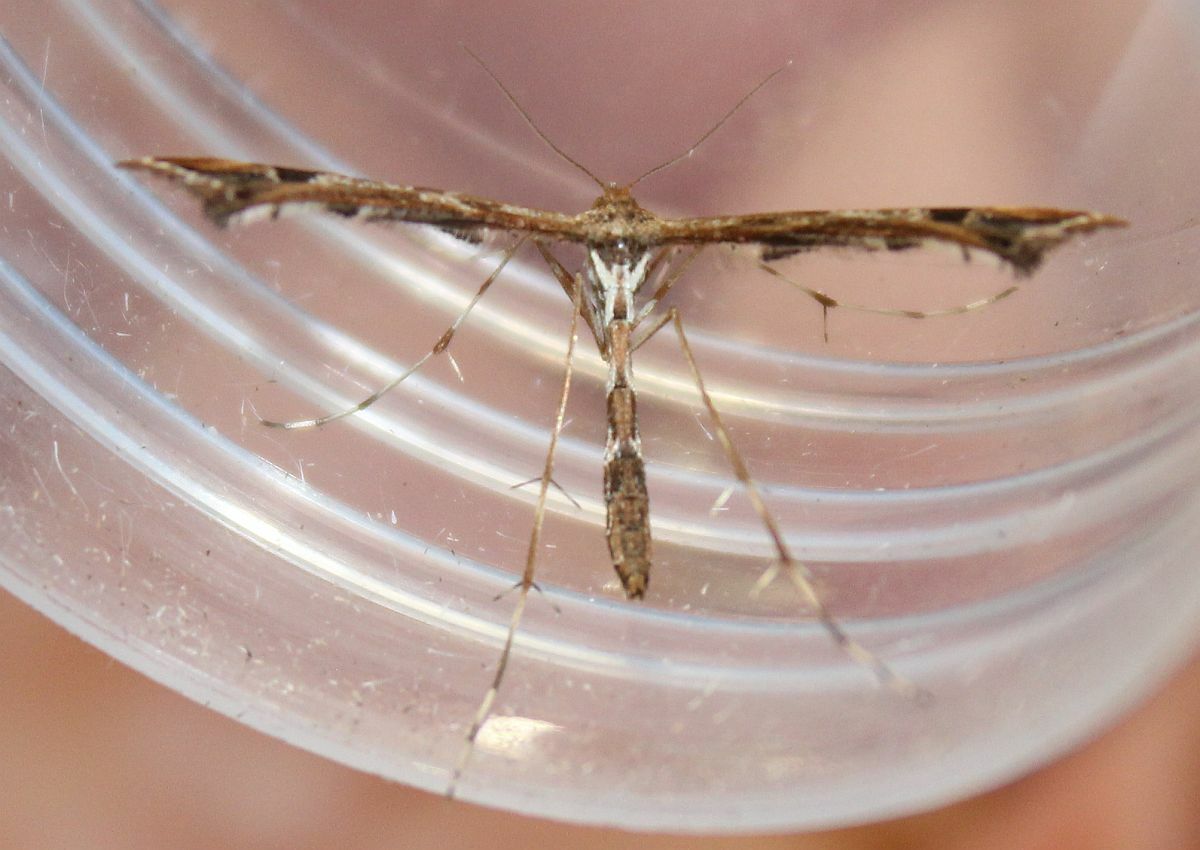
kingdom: Animalia
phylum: Arthropoda
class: Insecta
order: Lepidoptera
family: Pterophoridae
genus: Amblyptilia
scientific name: Amblyptilia acanthadactyla
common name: Beautiful plume
